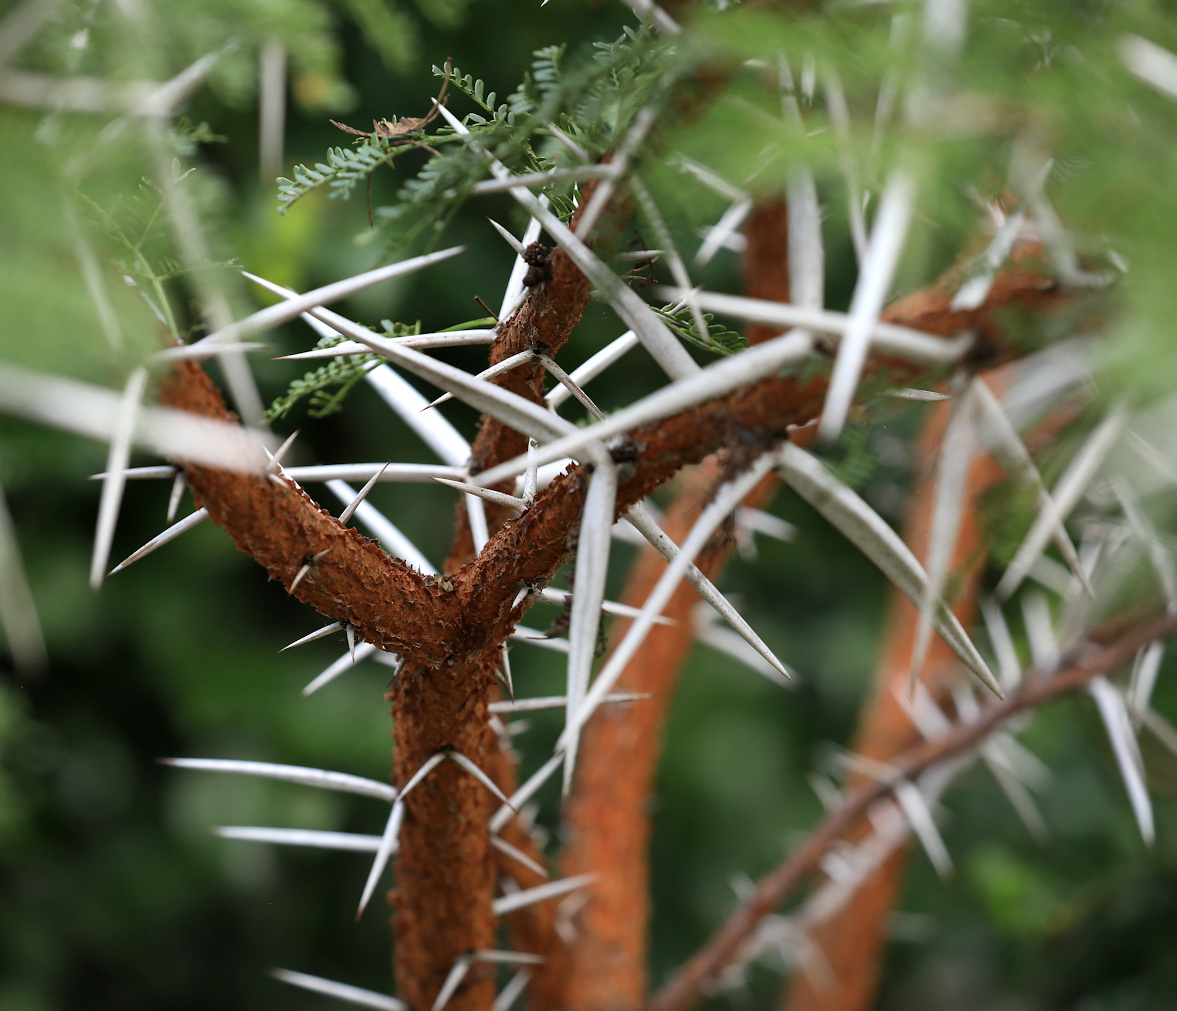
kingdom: Plantae
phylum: Tracheophyta
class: Magnoliopsida
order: Fabales
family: Fabaceae
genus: Vachellia
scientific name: Vachellia karroo
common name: Sweet thorn
